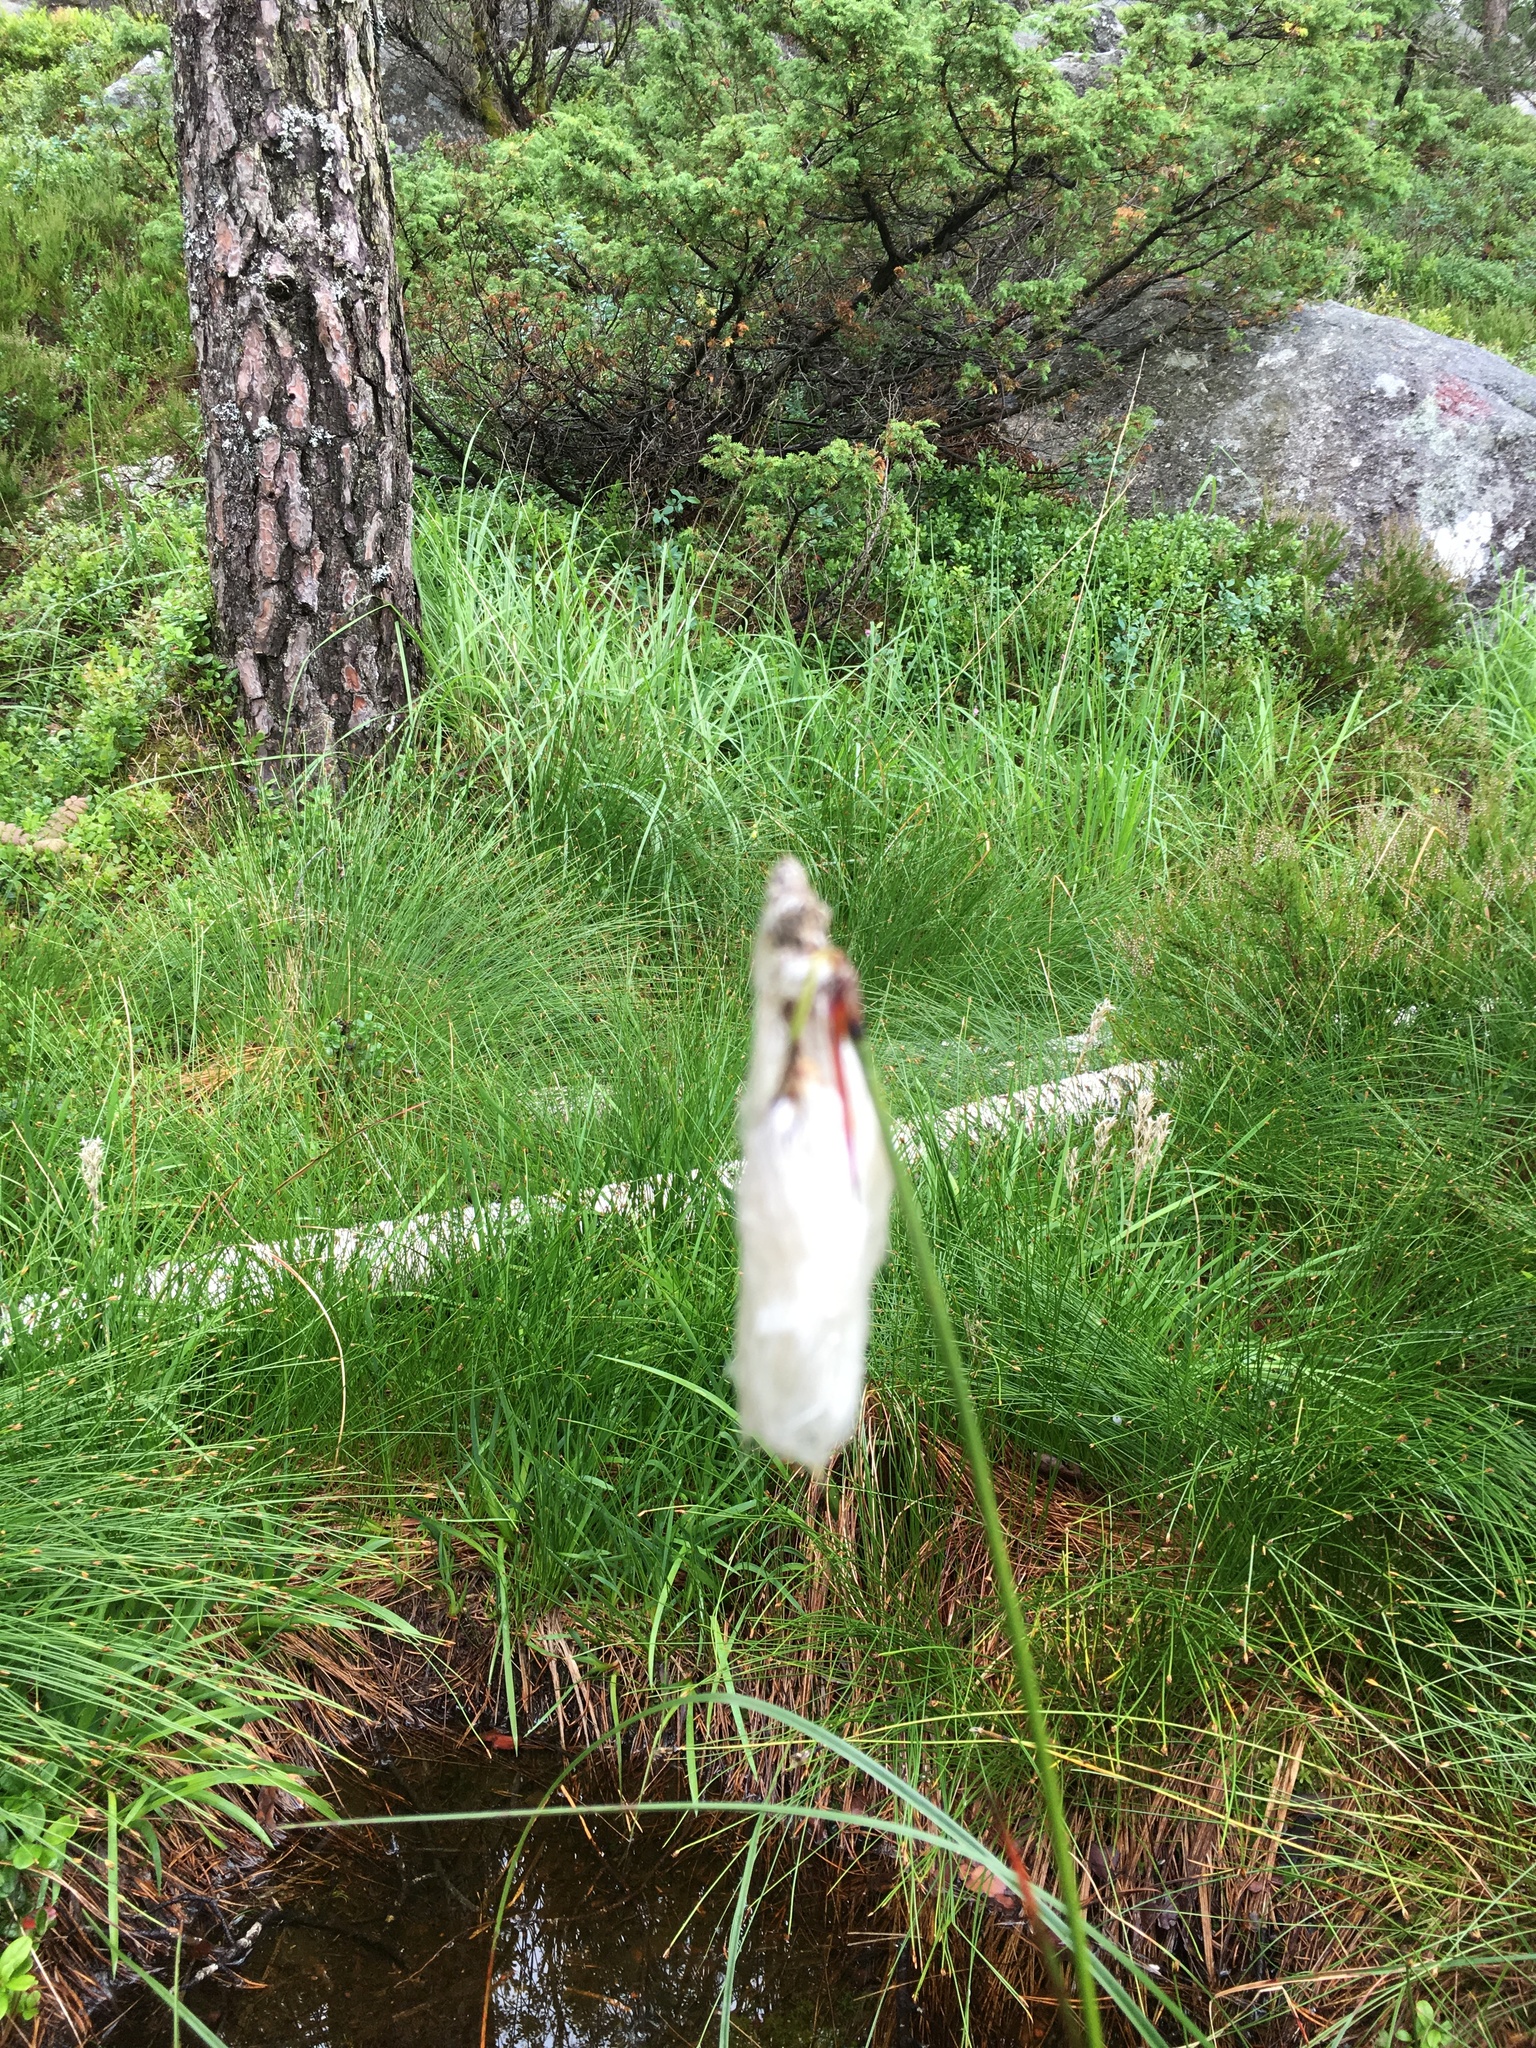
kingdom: Plantae
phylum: Tracheophyta
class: Liliopsida
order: Poales
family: Cyperaceae
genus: Eriophorum
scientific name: Eriophorum angustifolium
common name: Common cottongrass
